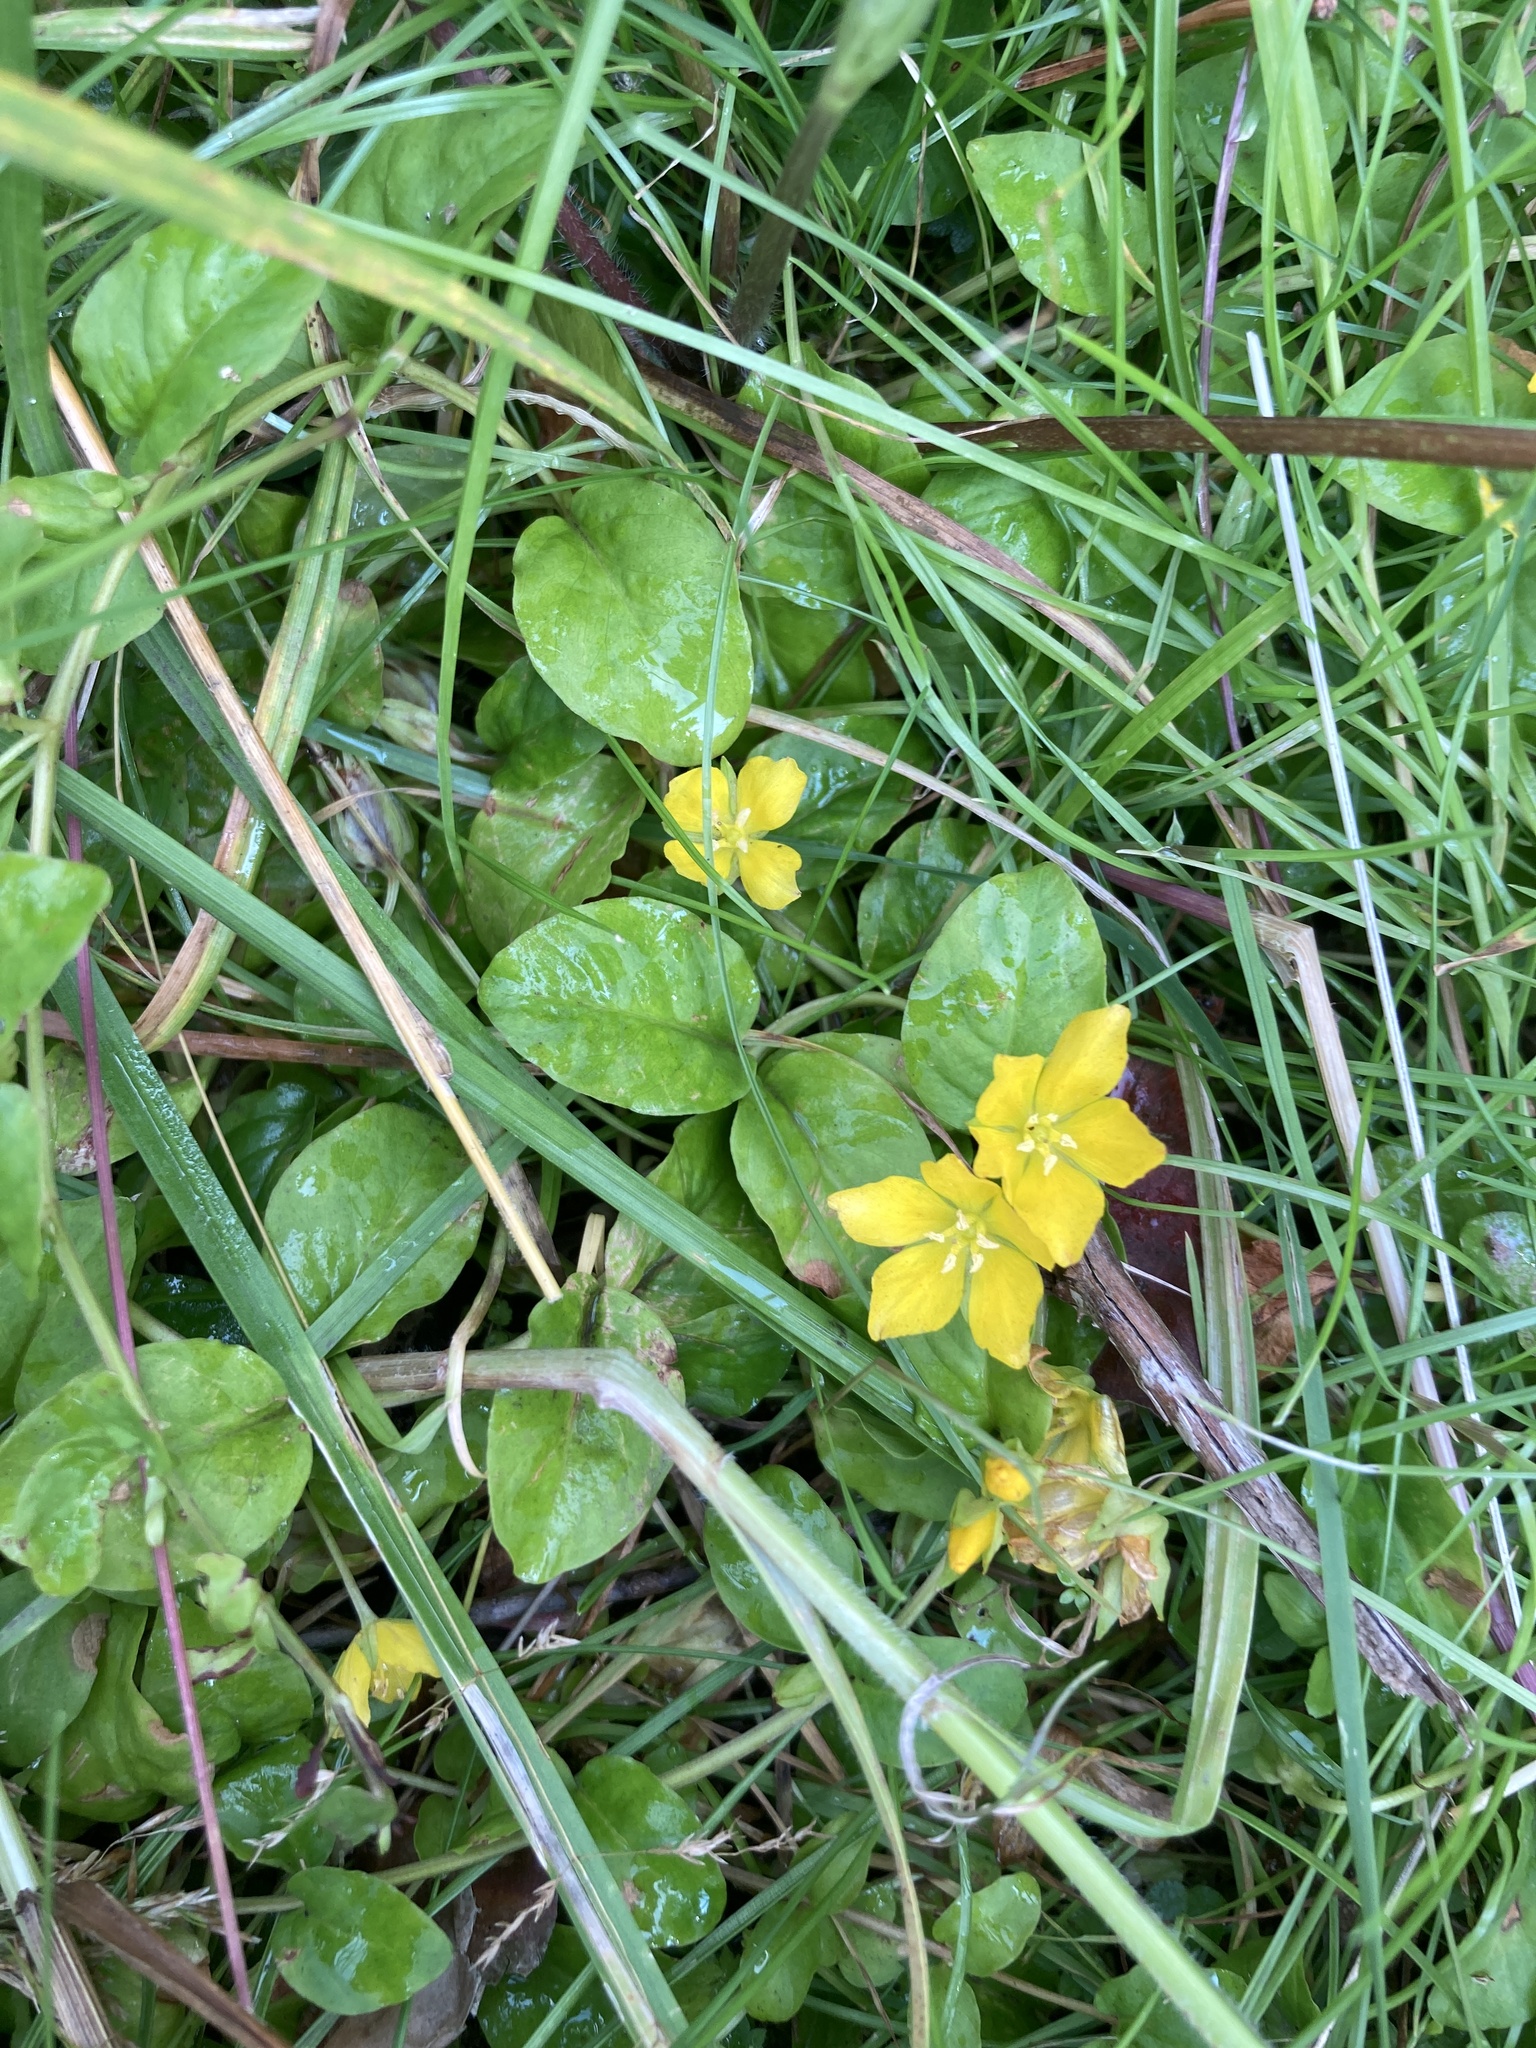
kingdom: Plantae
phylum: Tracheophyta
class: Magnoliopsida
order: Ericales
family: Primulaceae
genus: Lysimachia
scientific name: Lysimachia nummularia
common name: Moneywort
